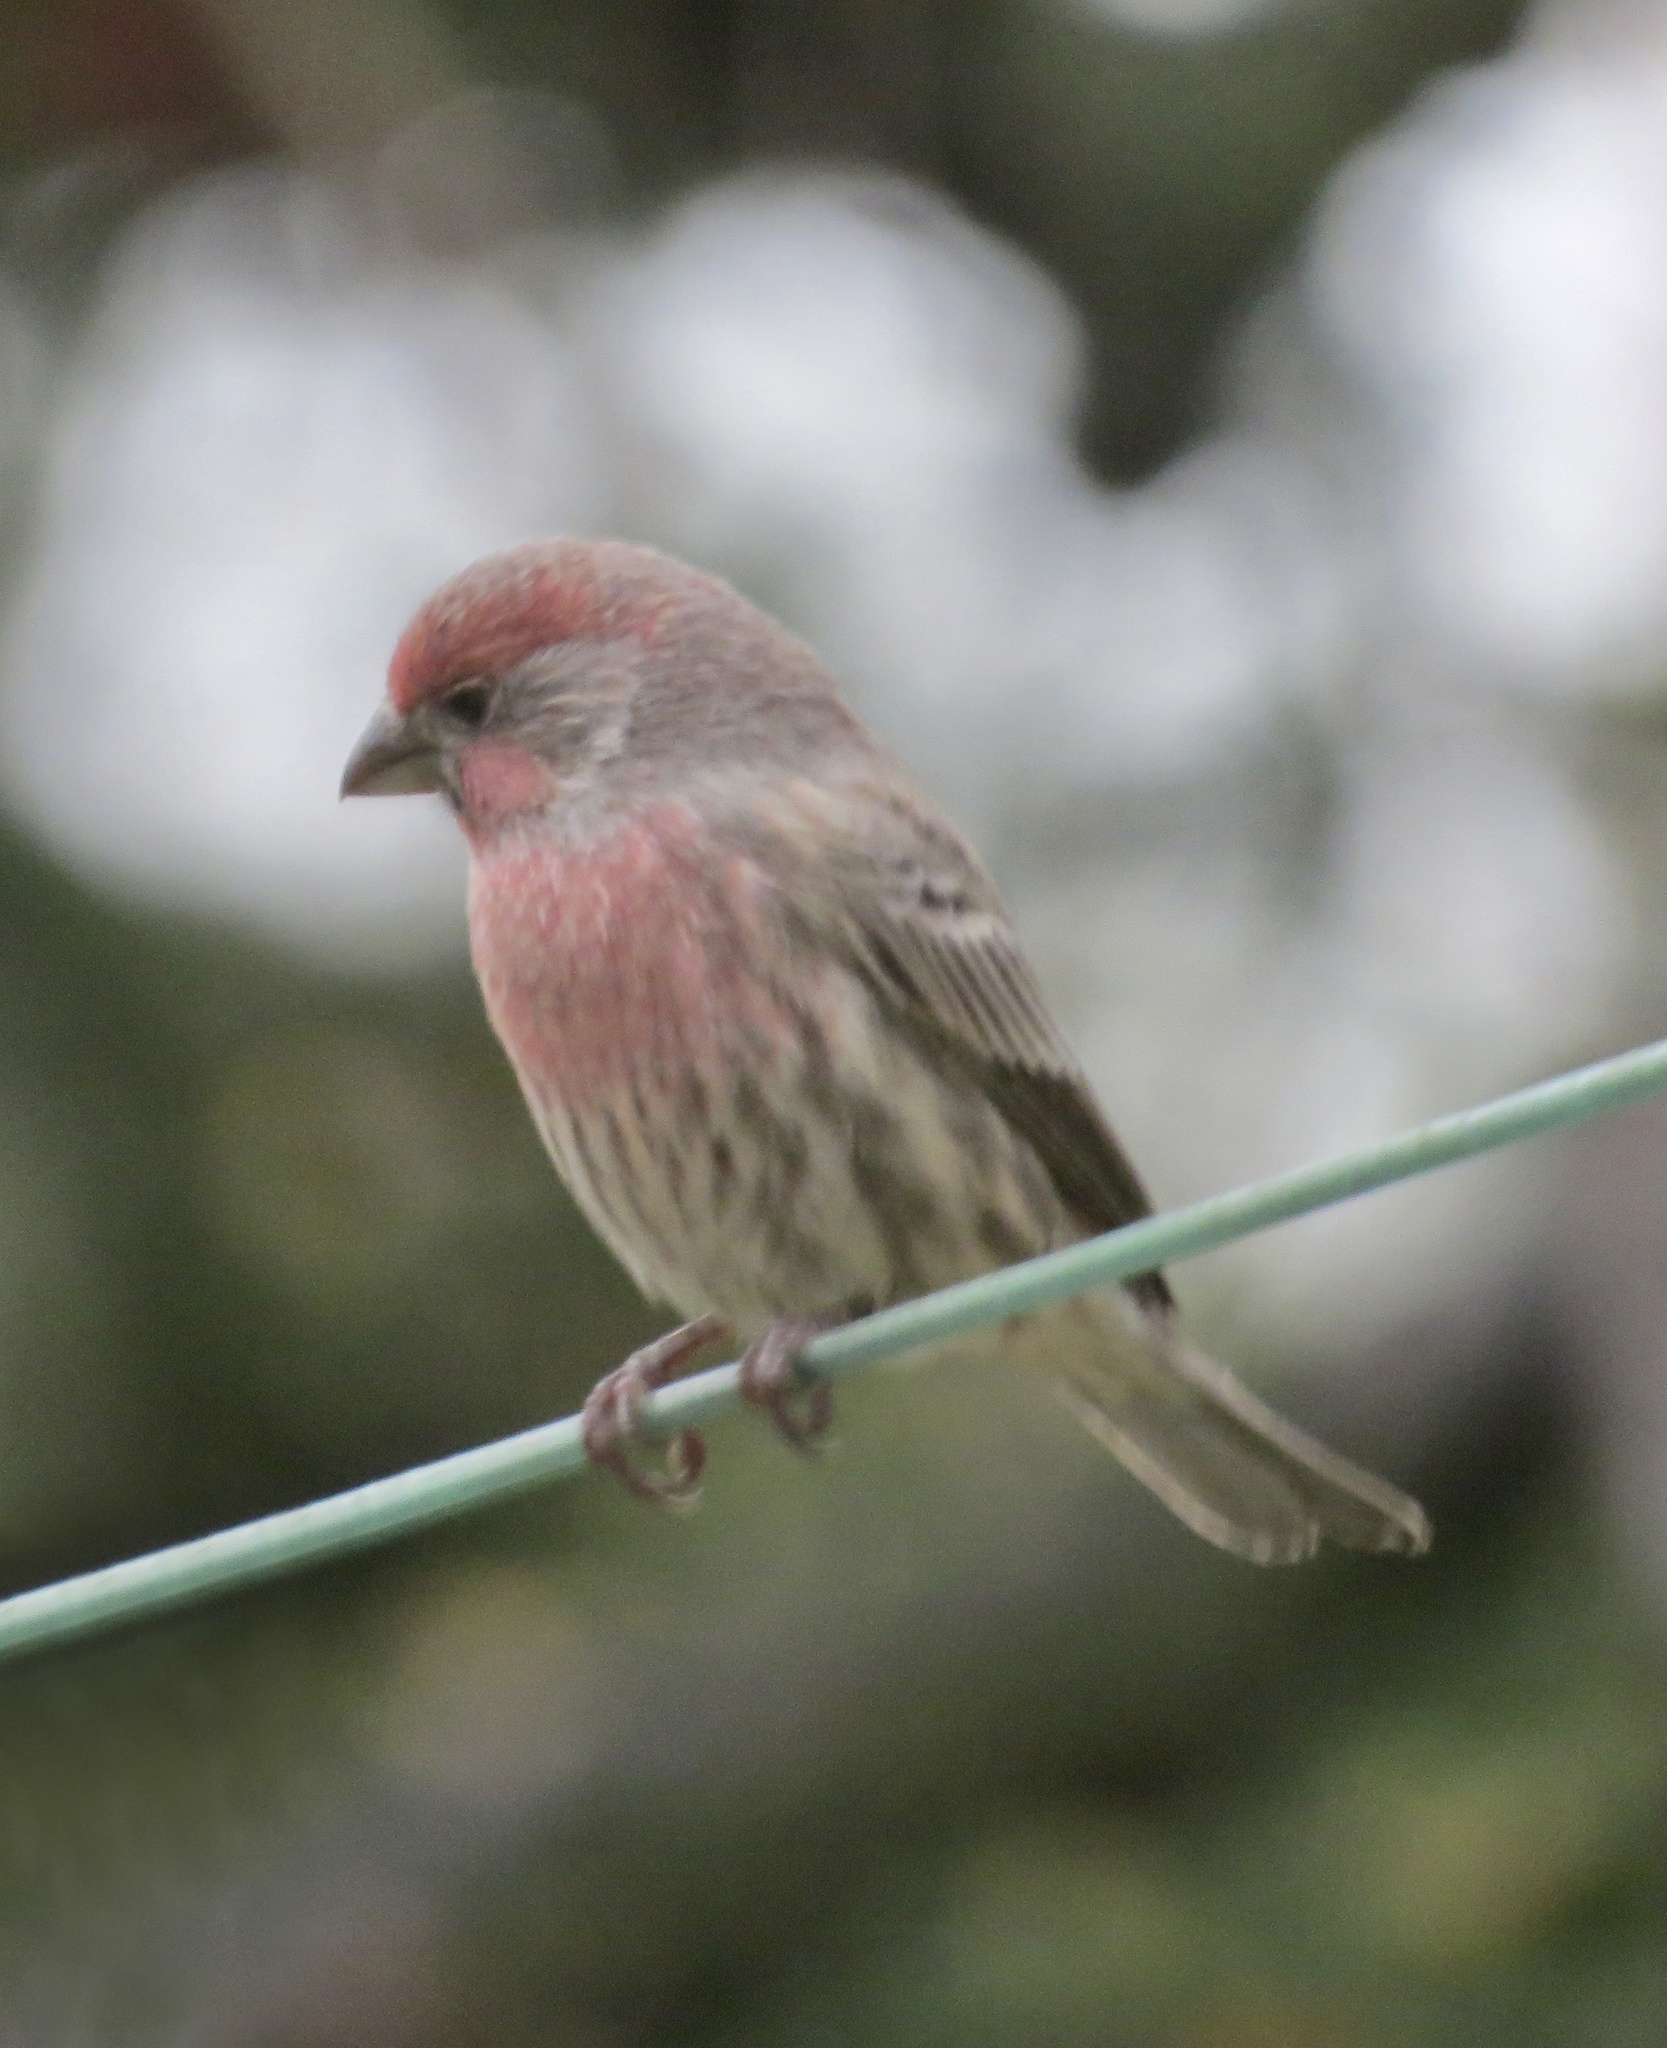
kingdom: Animalia
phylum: Chordata
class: Aves
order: Passeriformes
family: Fringillidae
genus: Haemorhous
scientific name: Haemorhous mexicanus
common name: House finch
